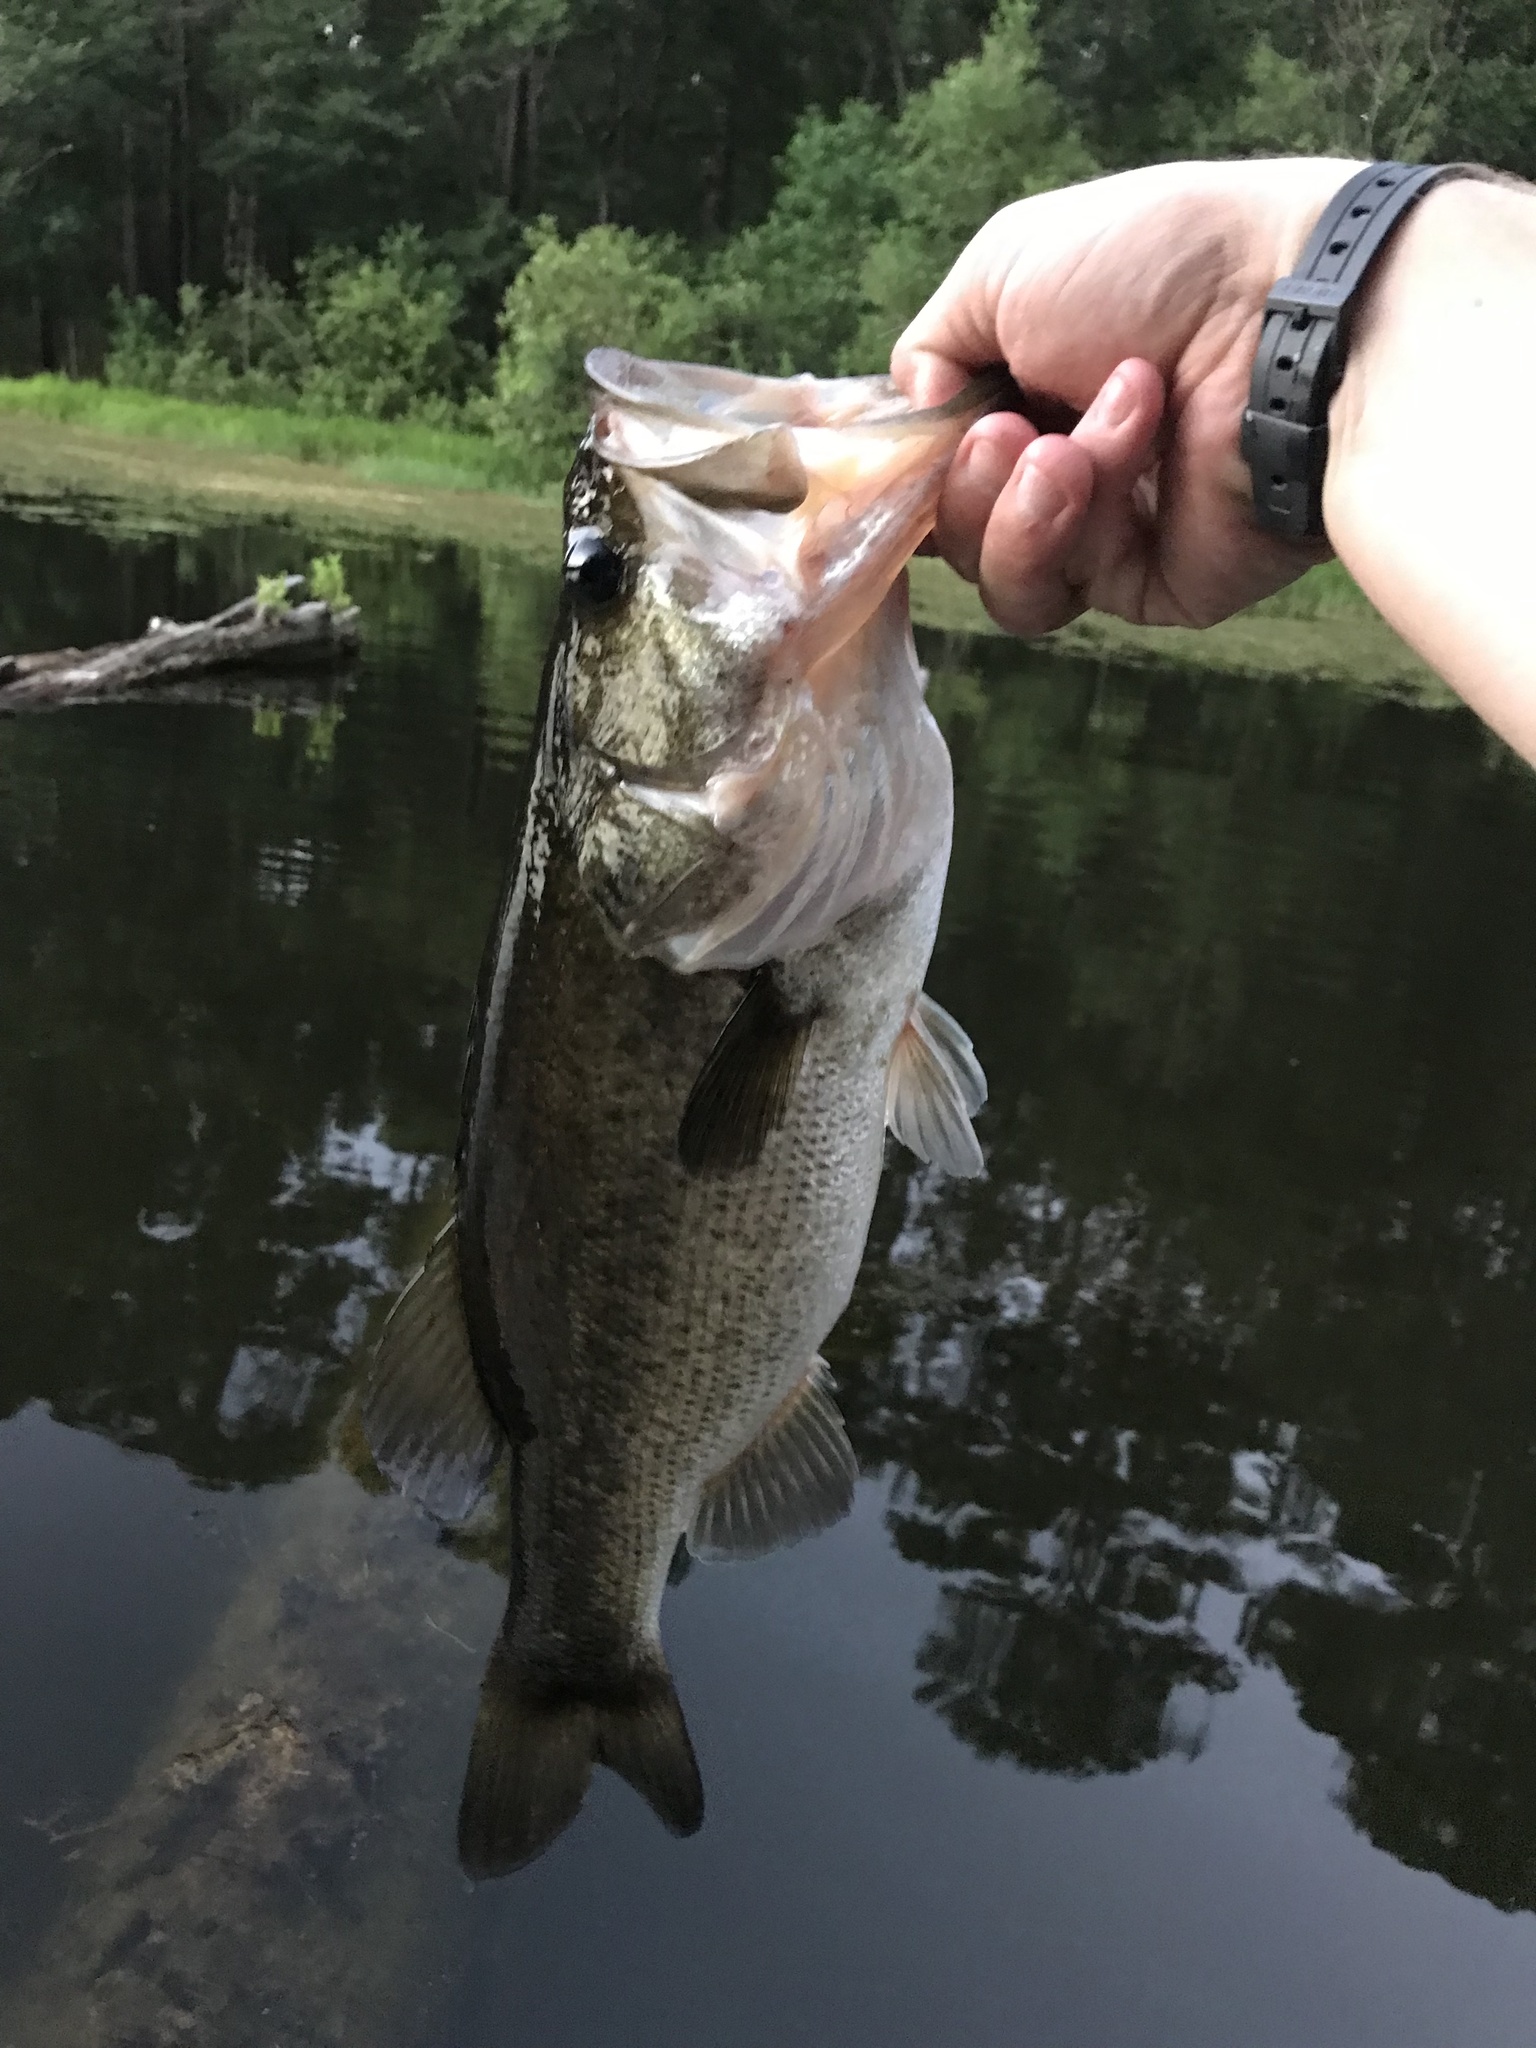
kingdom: Animalia
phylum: Chordata
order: Perciformes
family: Centrarchidae
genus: Micropterus
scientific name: Micropterus
